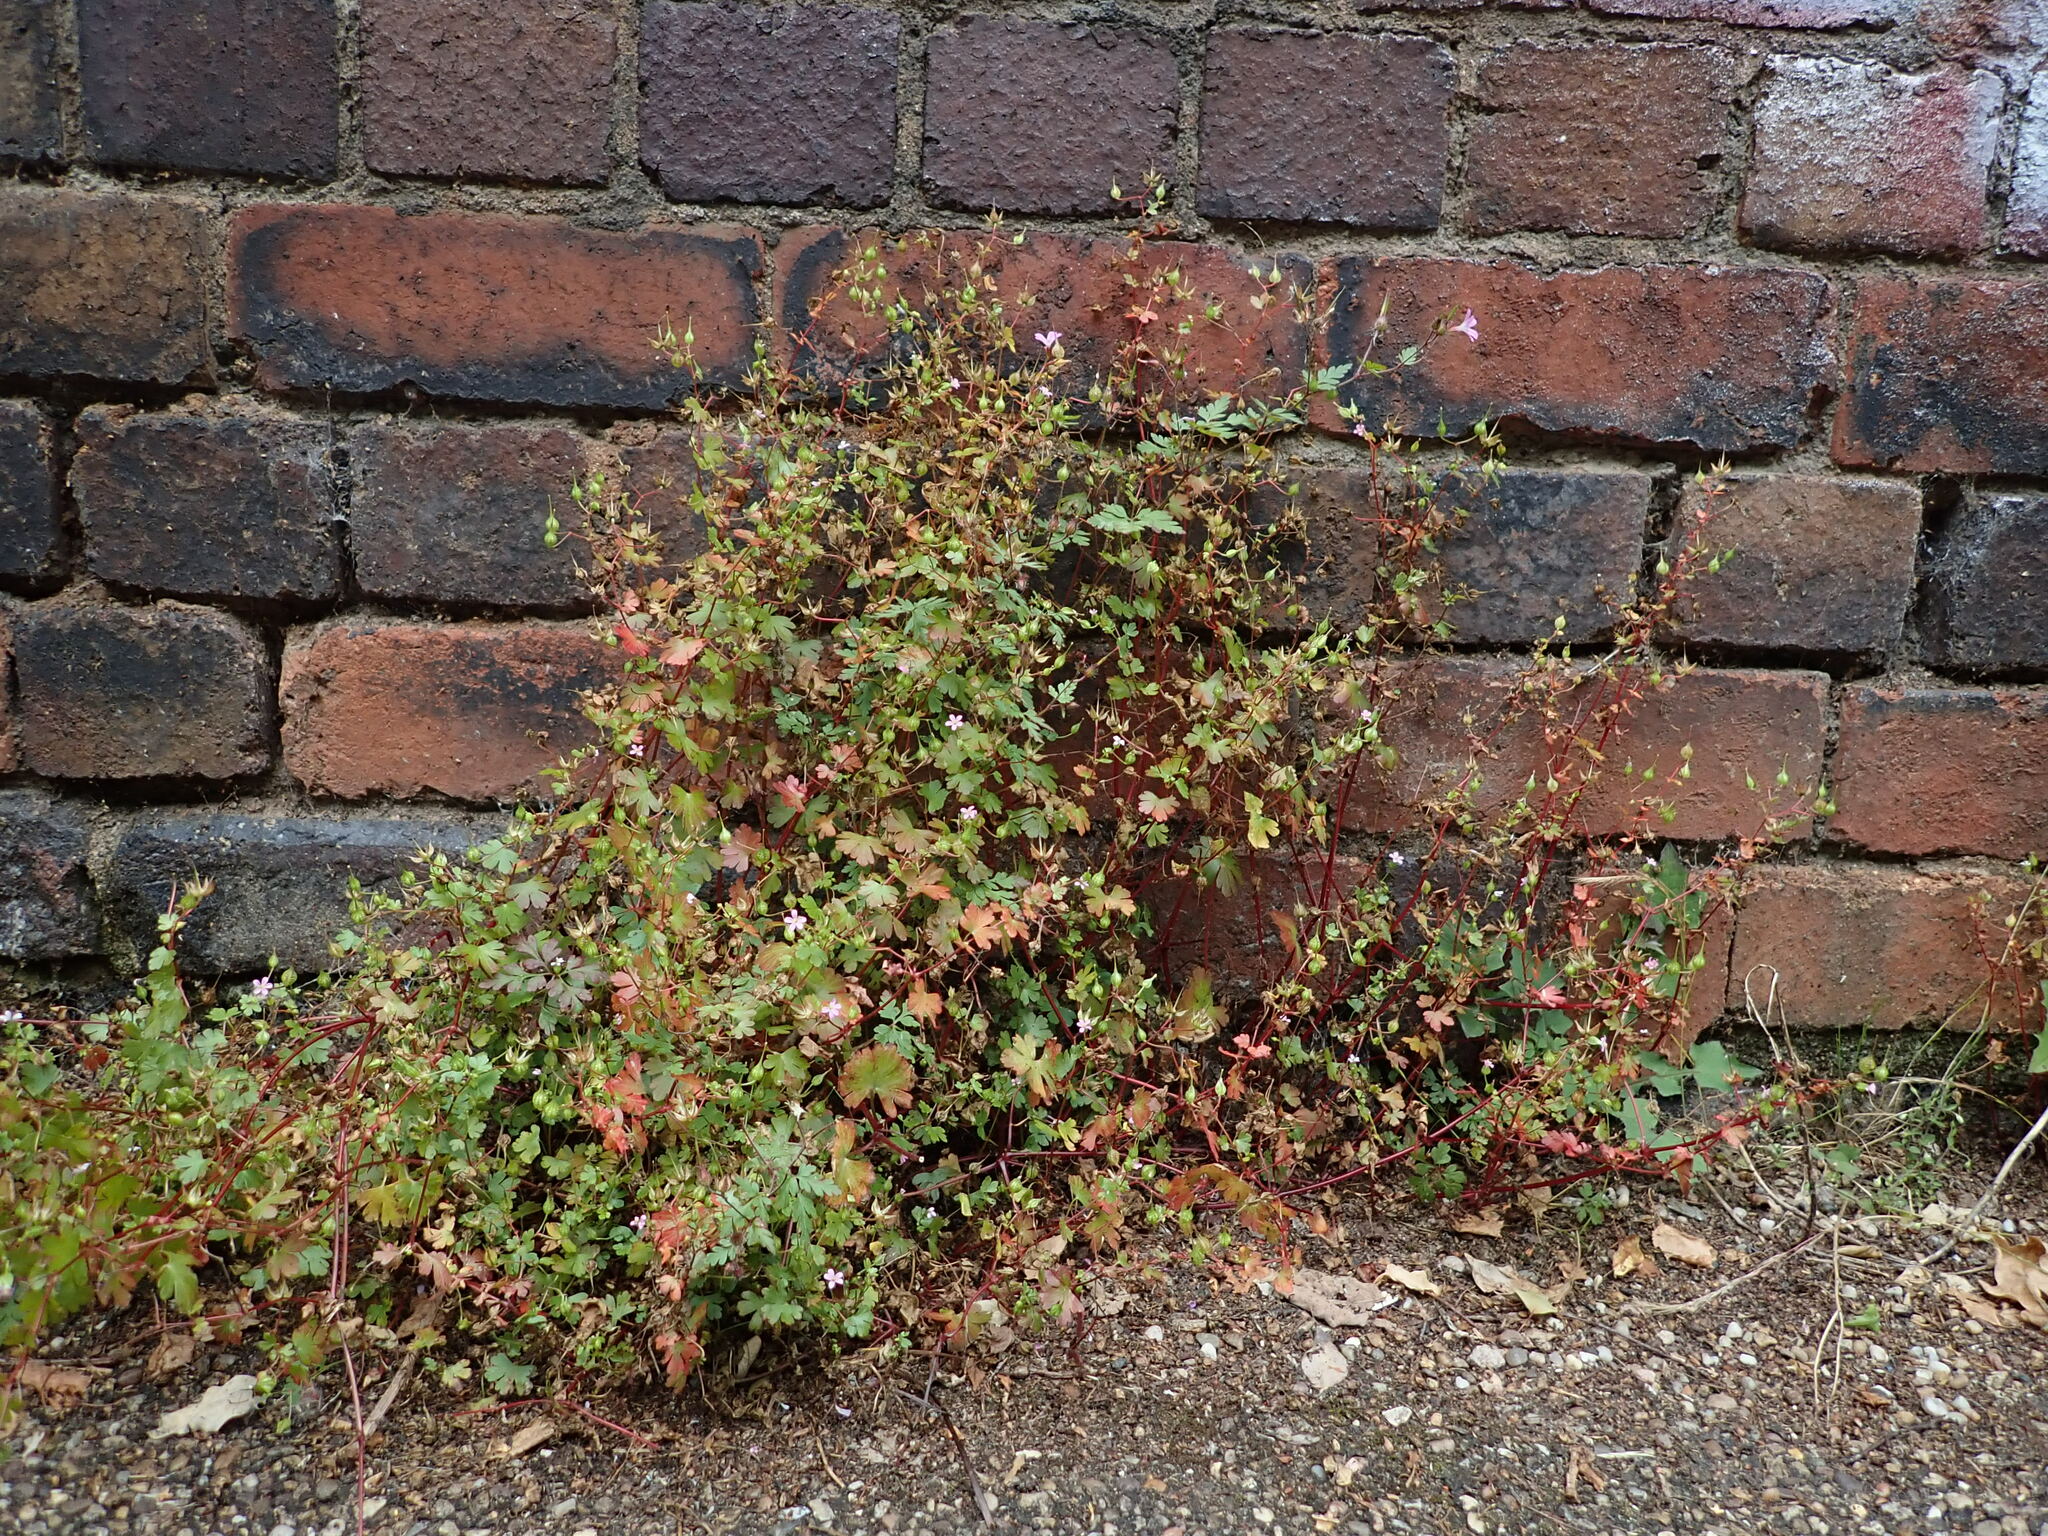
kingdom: Plantae
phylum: Tracheophyta
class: Magnoliopsida
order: Geraniales
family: Geraniaceae
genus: Geranium
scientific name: Geranium lucidum
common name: Shining crane's-bill
